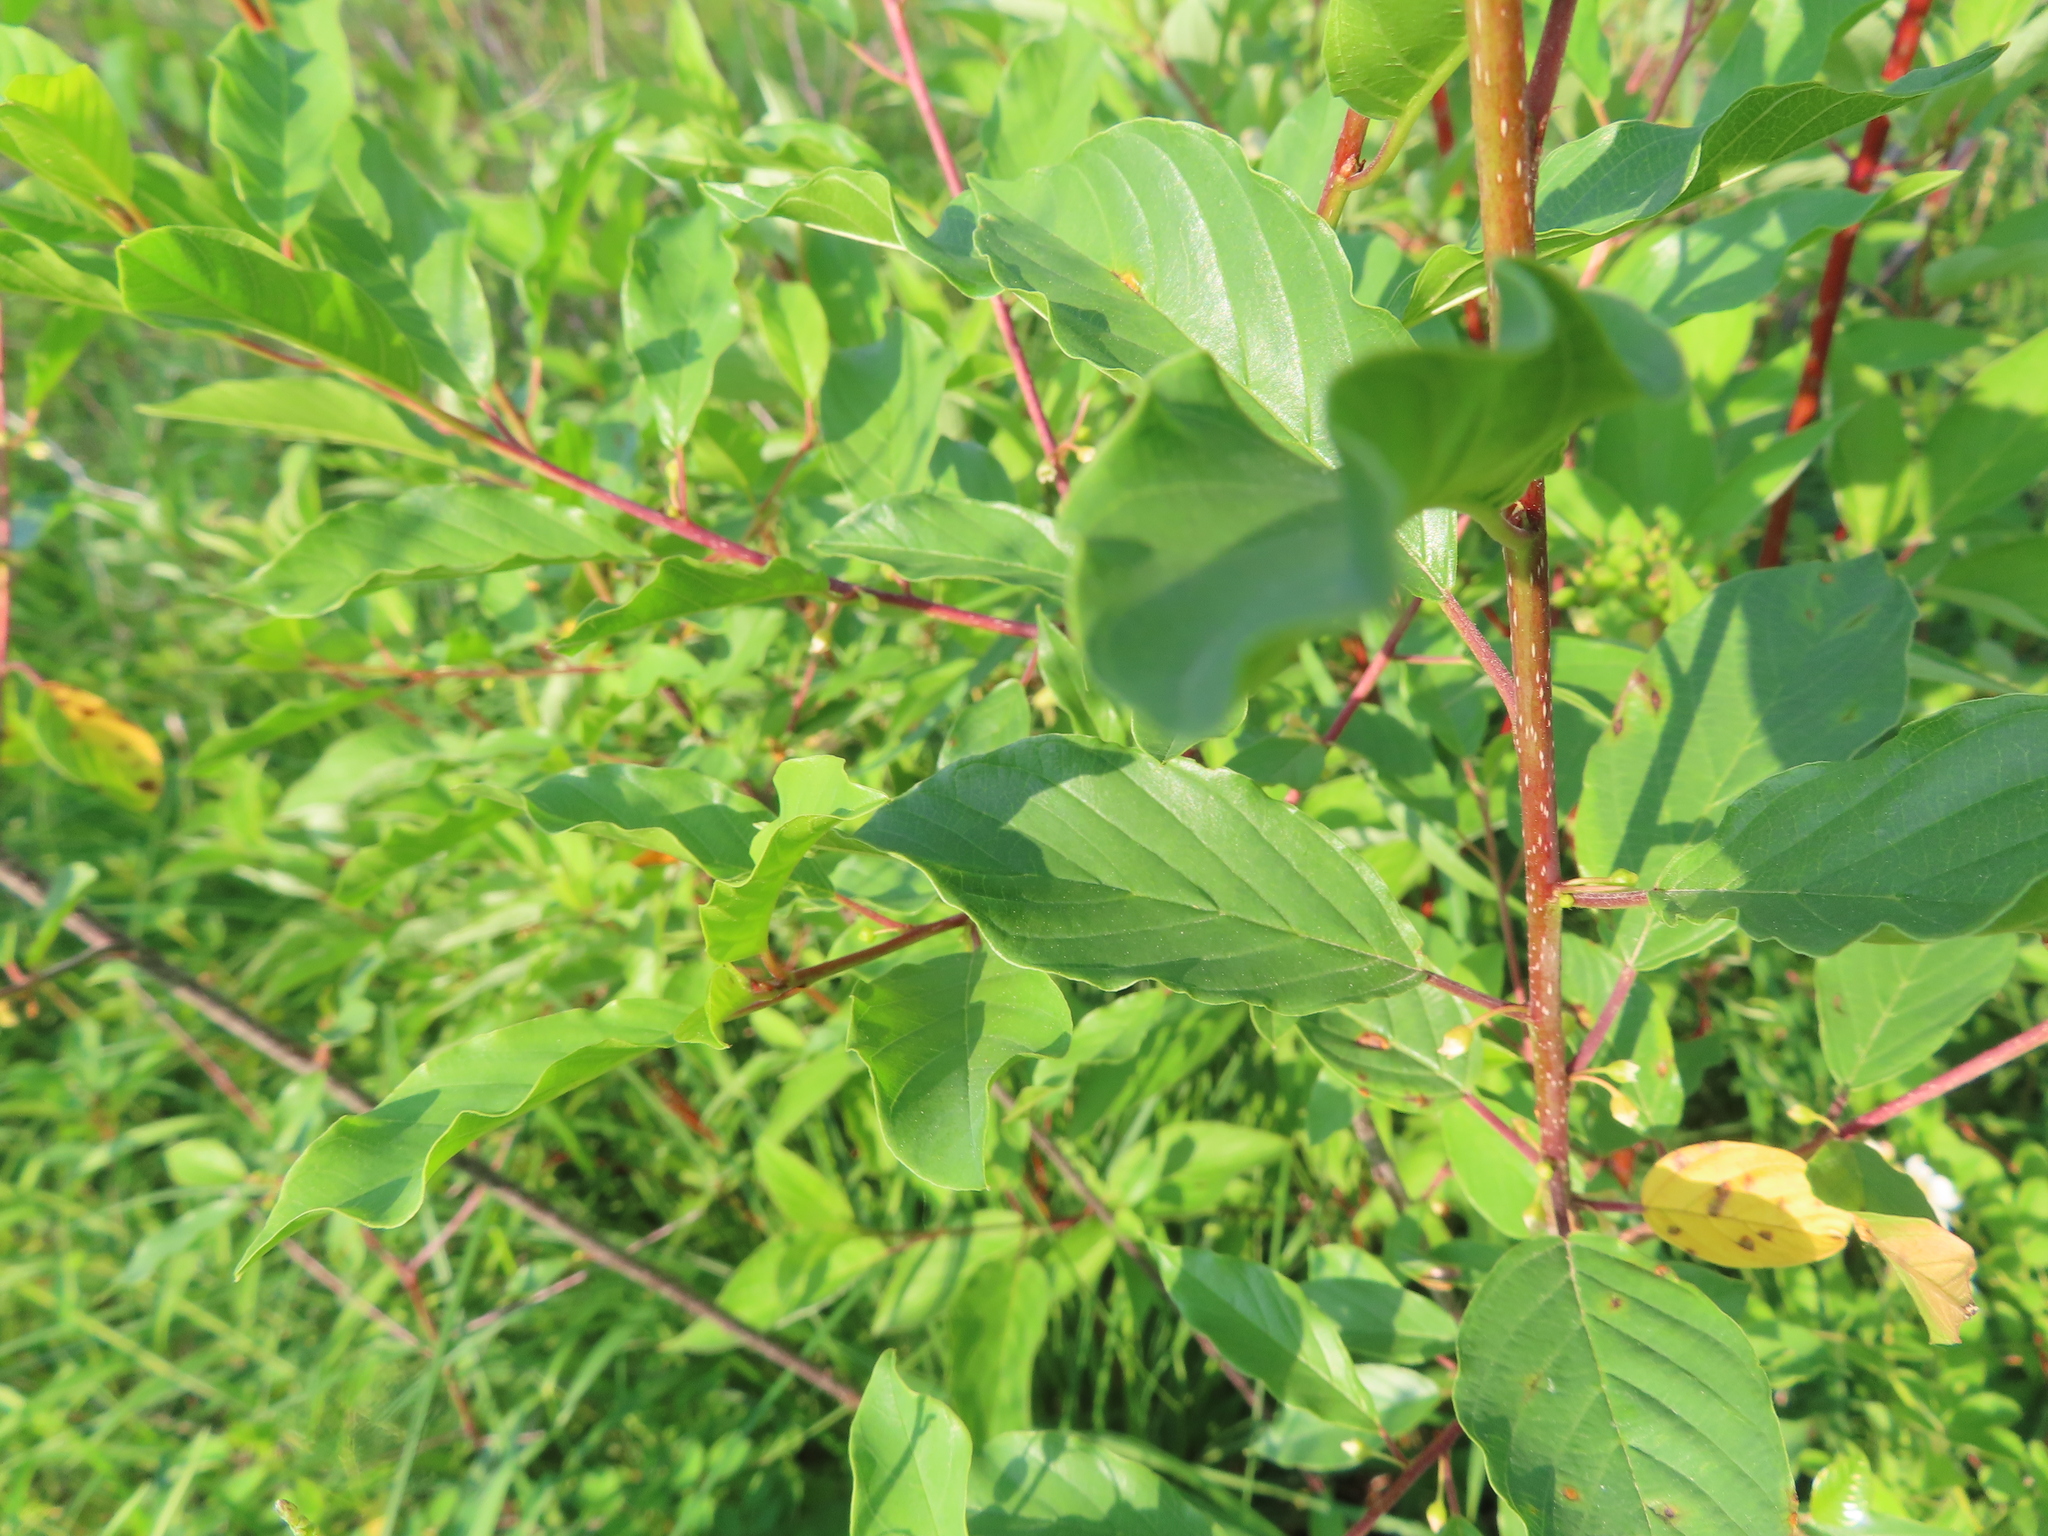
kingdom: Plantae
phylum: Tracheophyta
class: Magnoliopsida
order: Rosales
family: Rhamnaceae
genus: Frangula
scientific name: Frangula alnus
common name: Alder buckthorn
